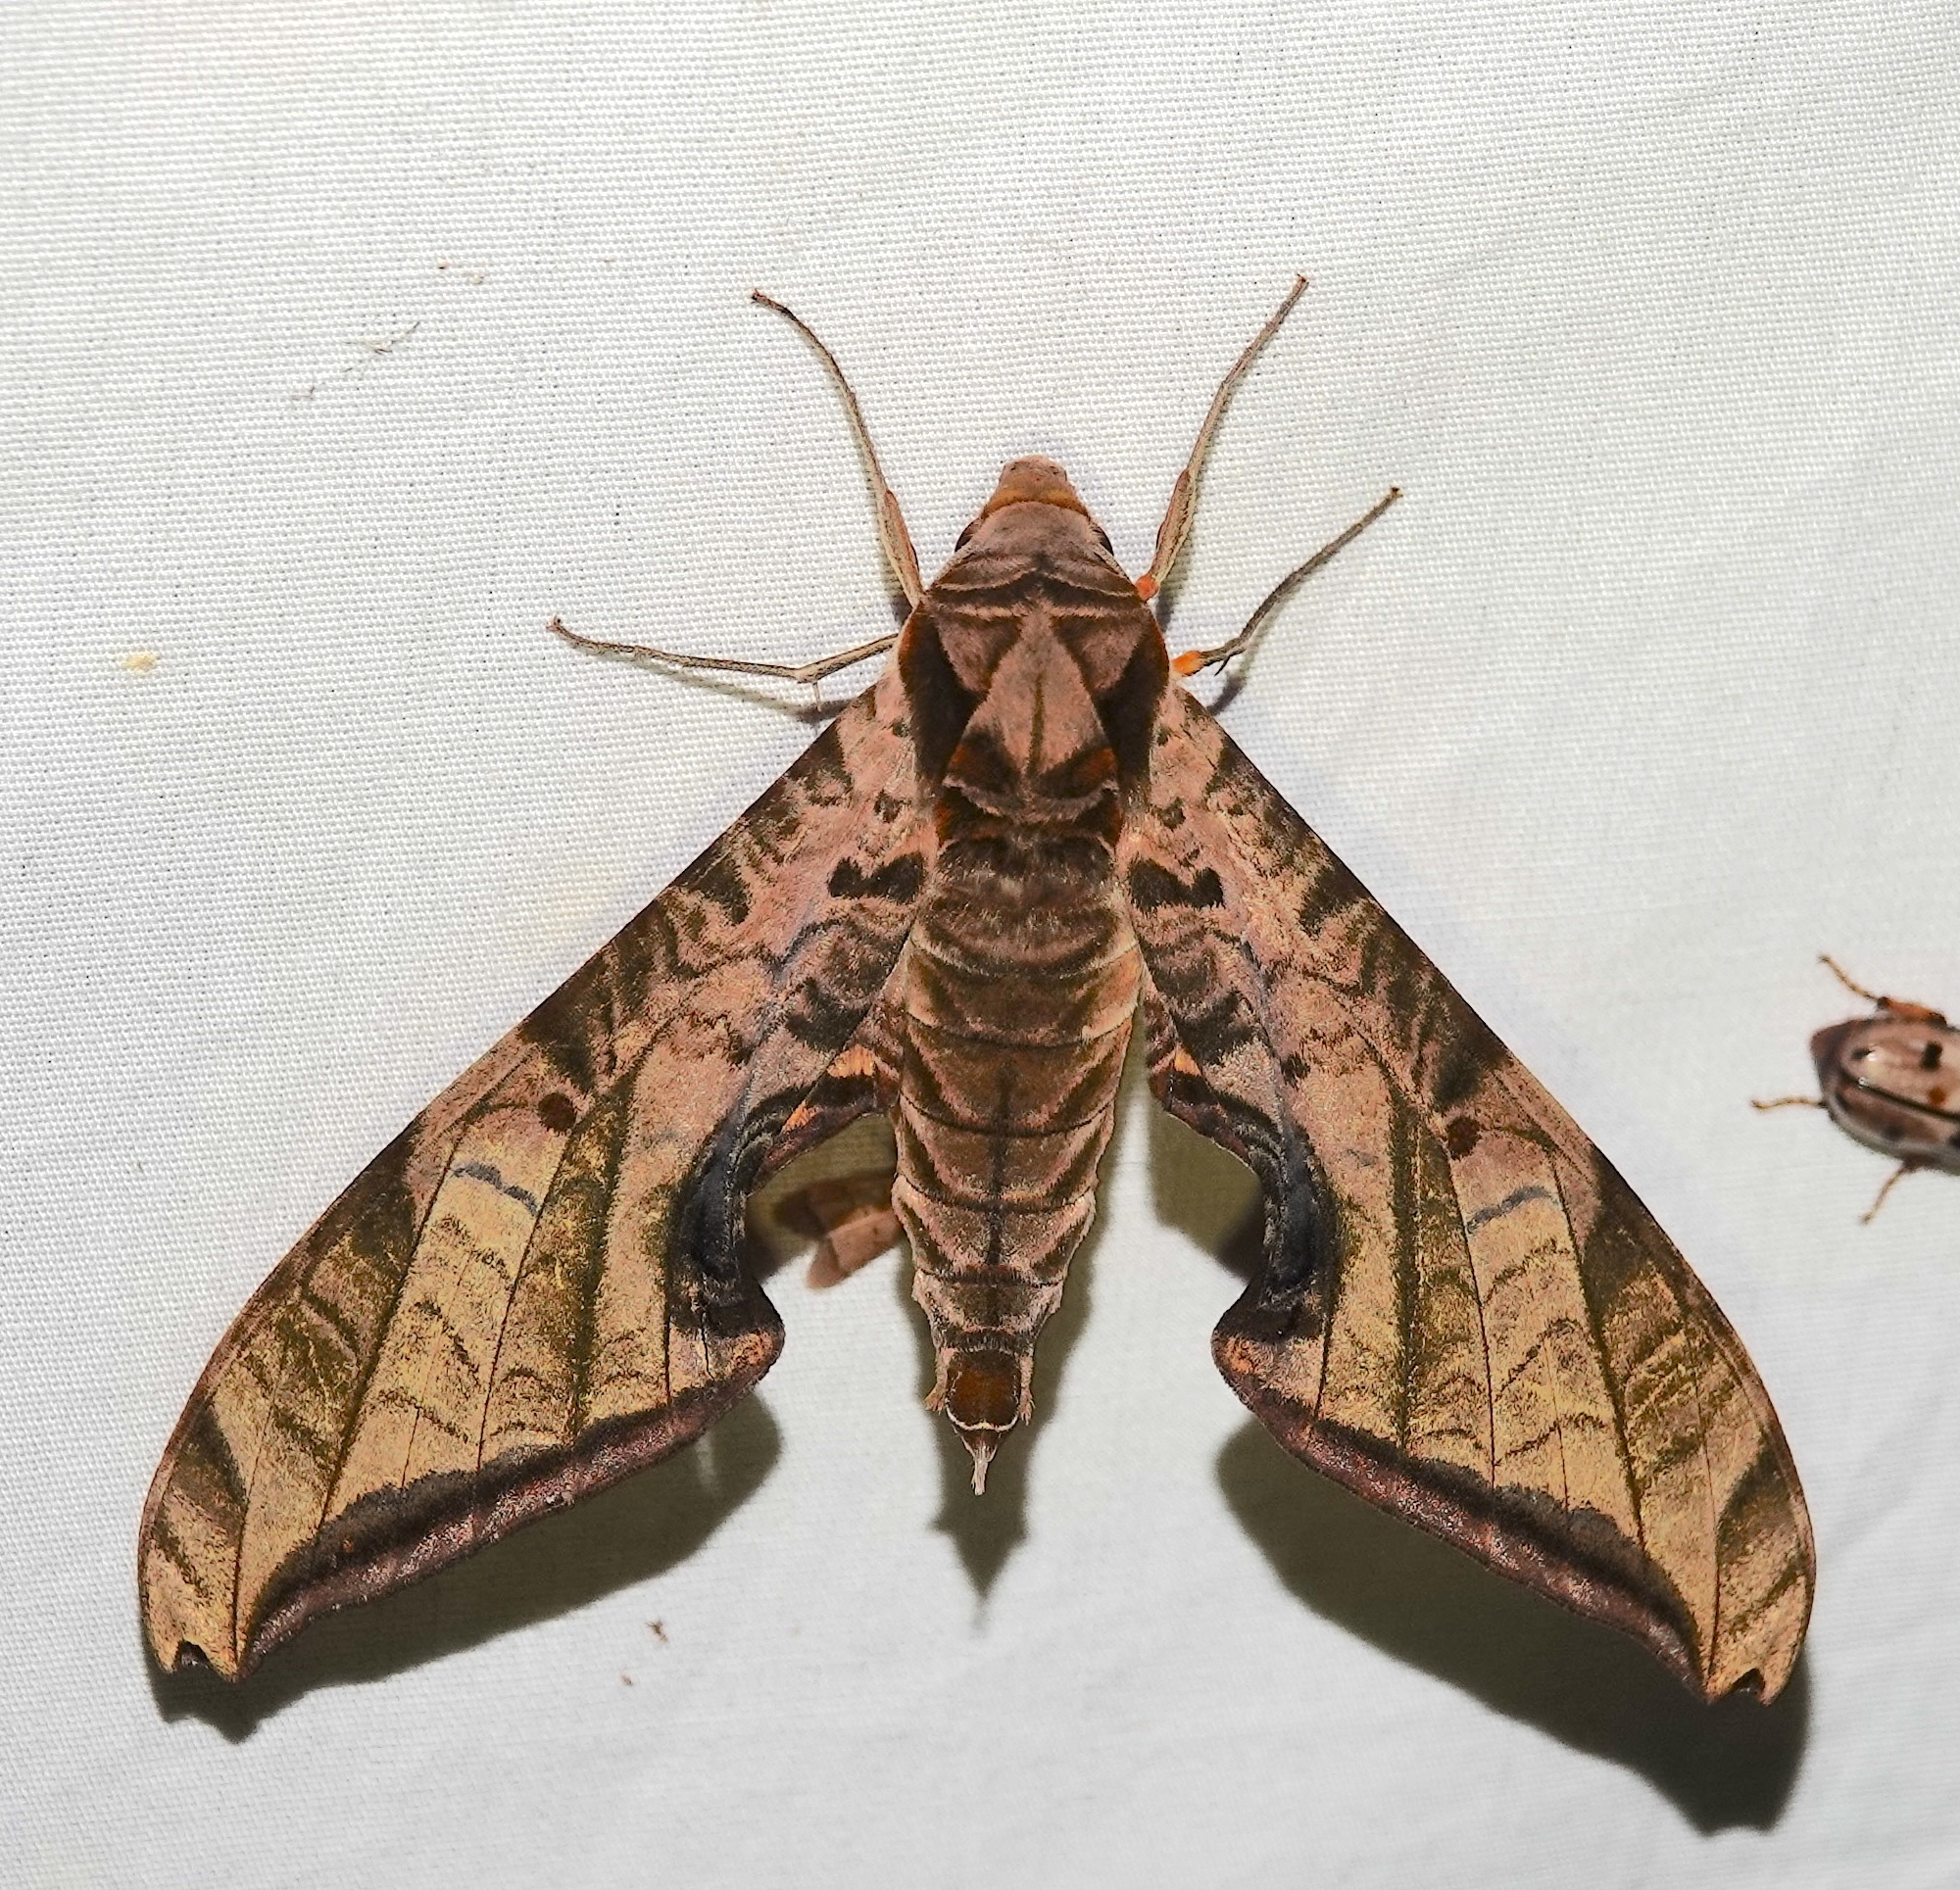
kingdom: Animalia
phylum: Arthropoda
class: Insecta
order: Lepidoptera
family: Sphingidae
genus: Protambulyx
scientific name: Protambulyx eurycles
